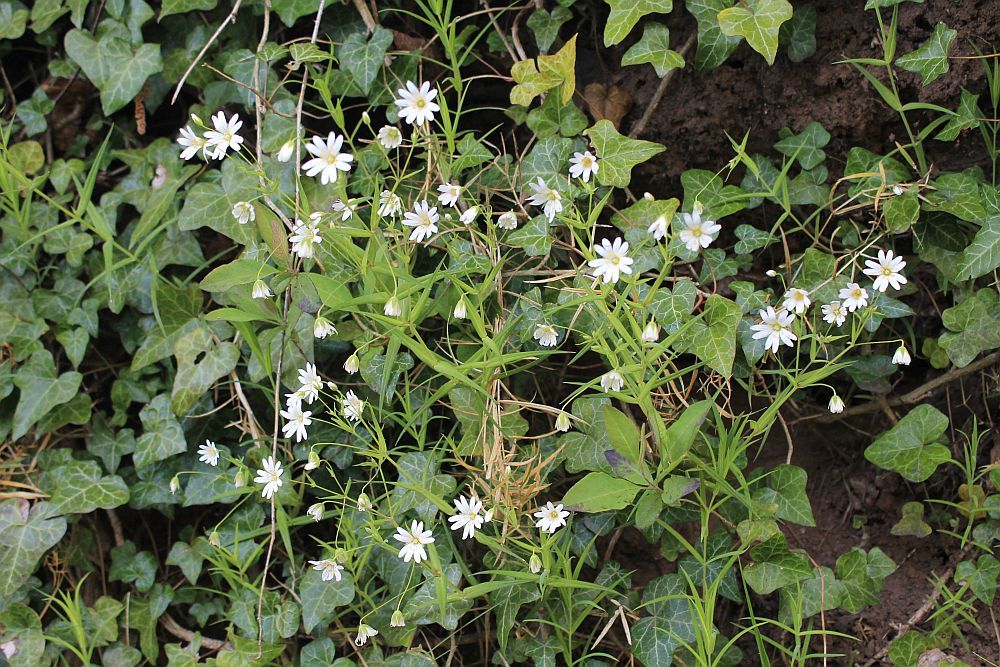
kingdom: Plantae
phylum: Tracheophyta
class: Magnoliopsida
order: Caryophyllales
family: Caryophyllaceae
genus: Rabelera
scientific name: Rabelera holostea
